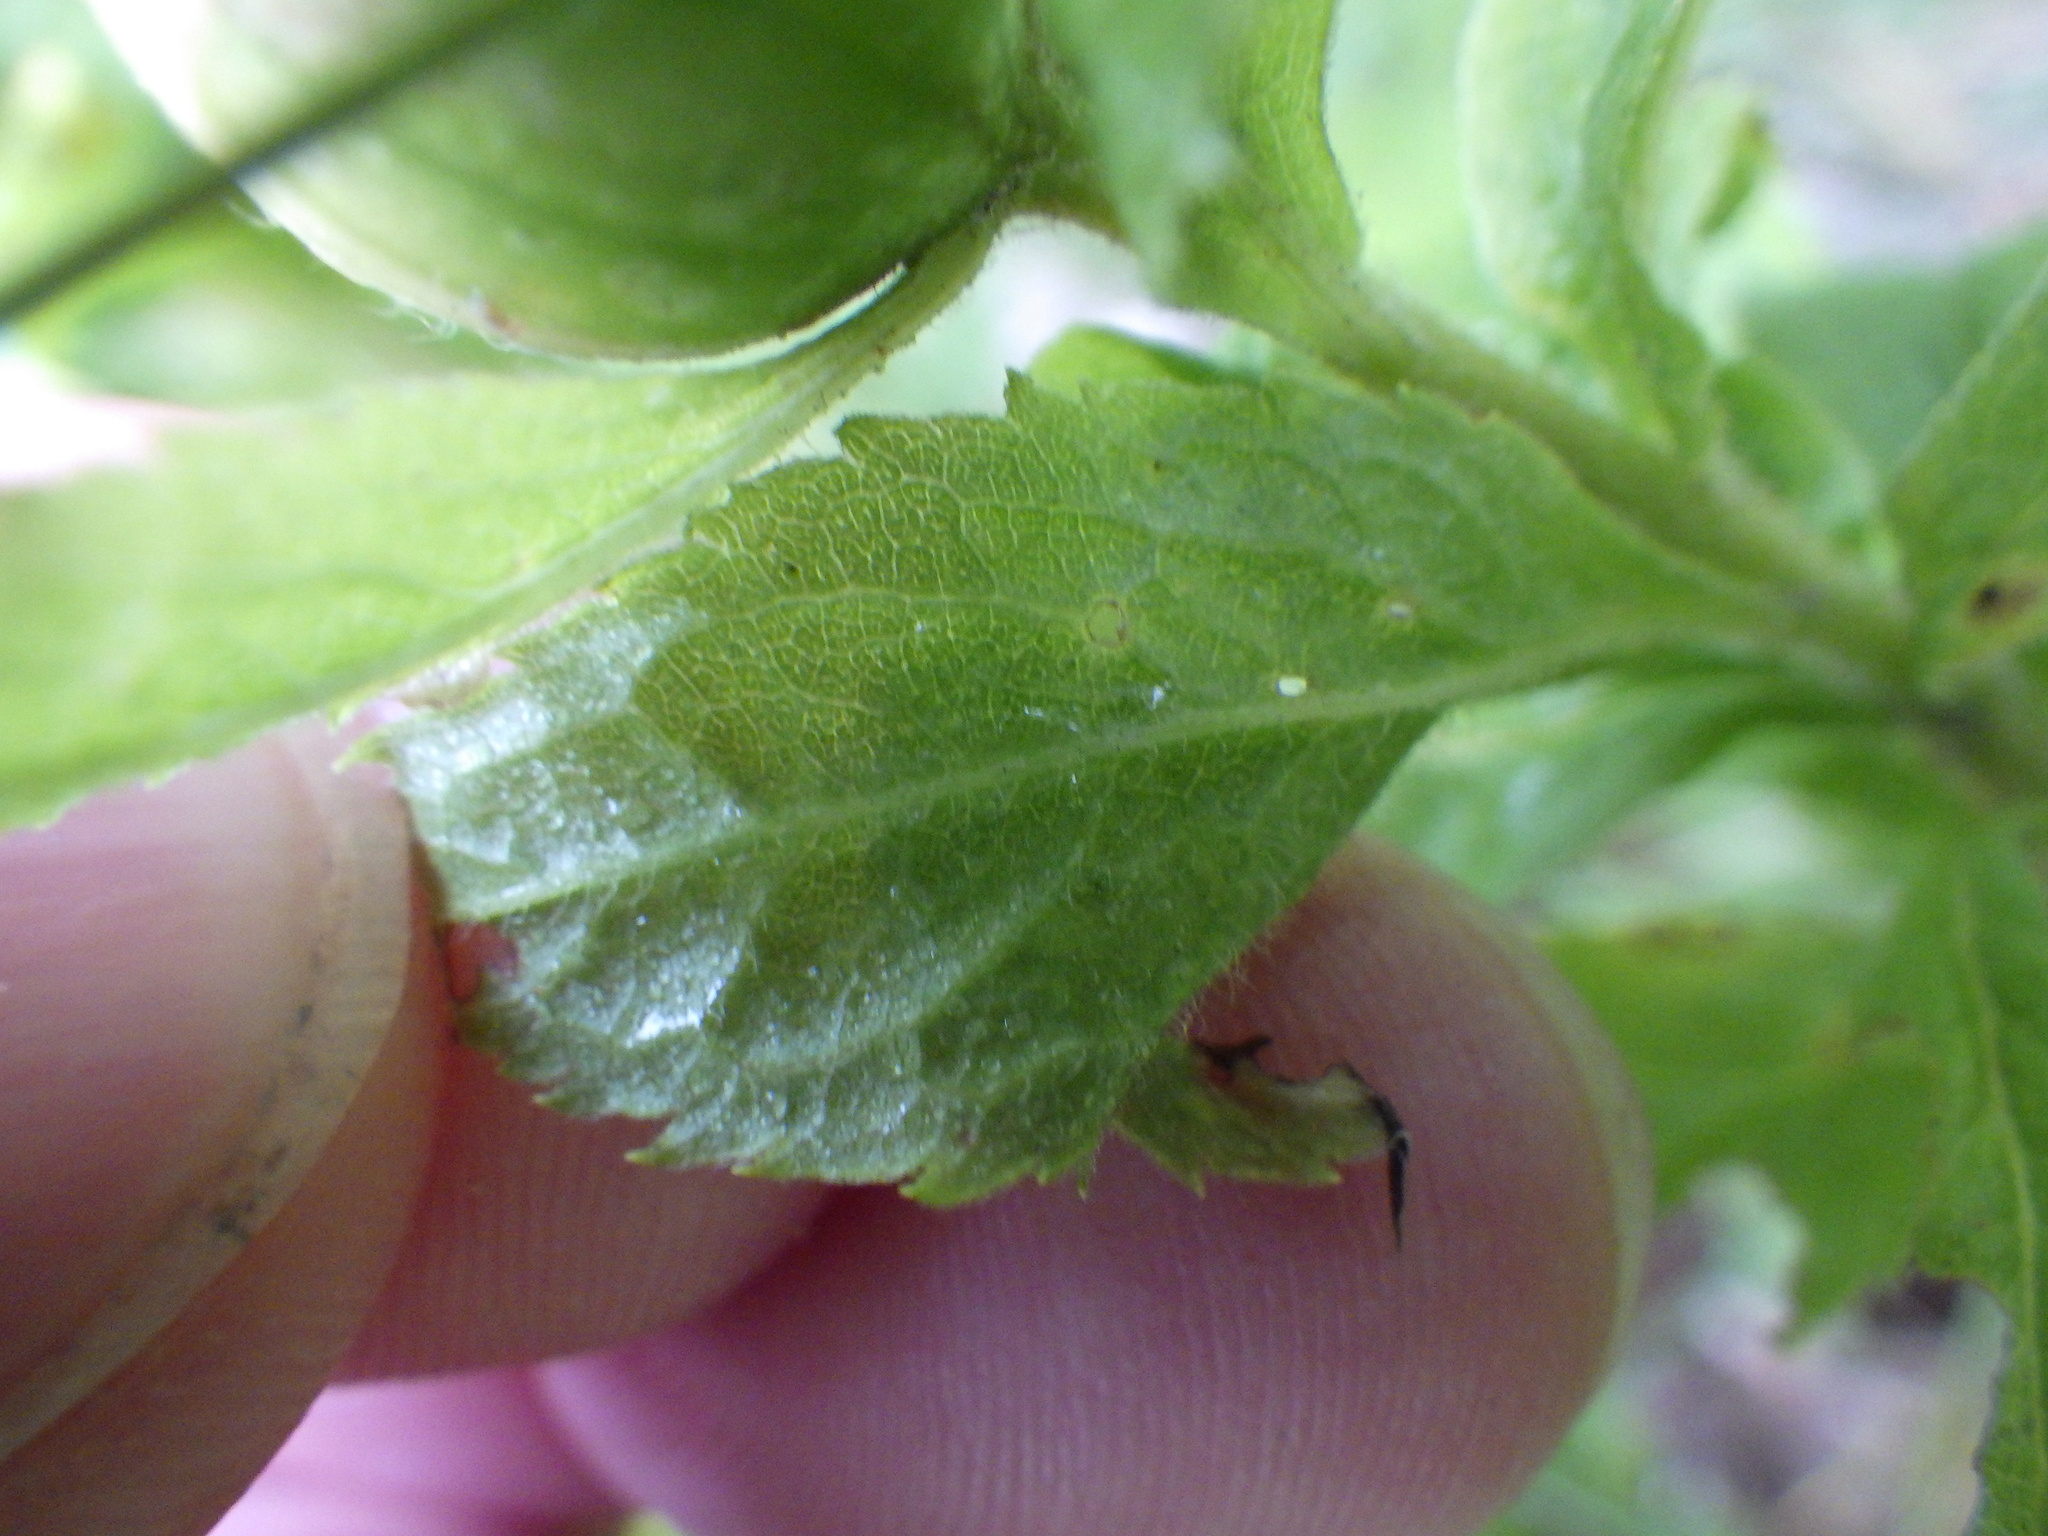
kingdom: Plantae
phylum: Tracheophyta
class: Magnoliopsida
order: Asterales
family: Asteraceae
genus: Solidago
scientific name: Solidago rugosa
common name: Rough-stemmed goldenrod
